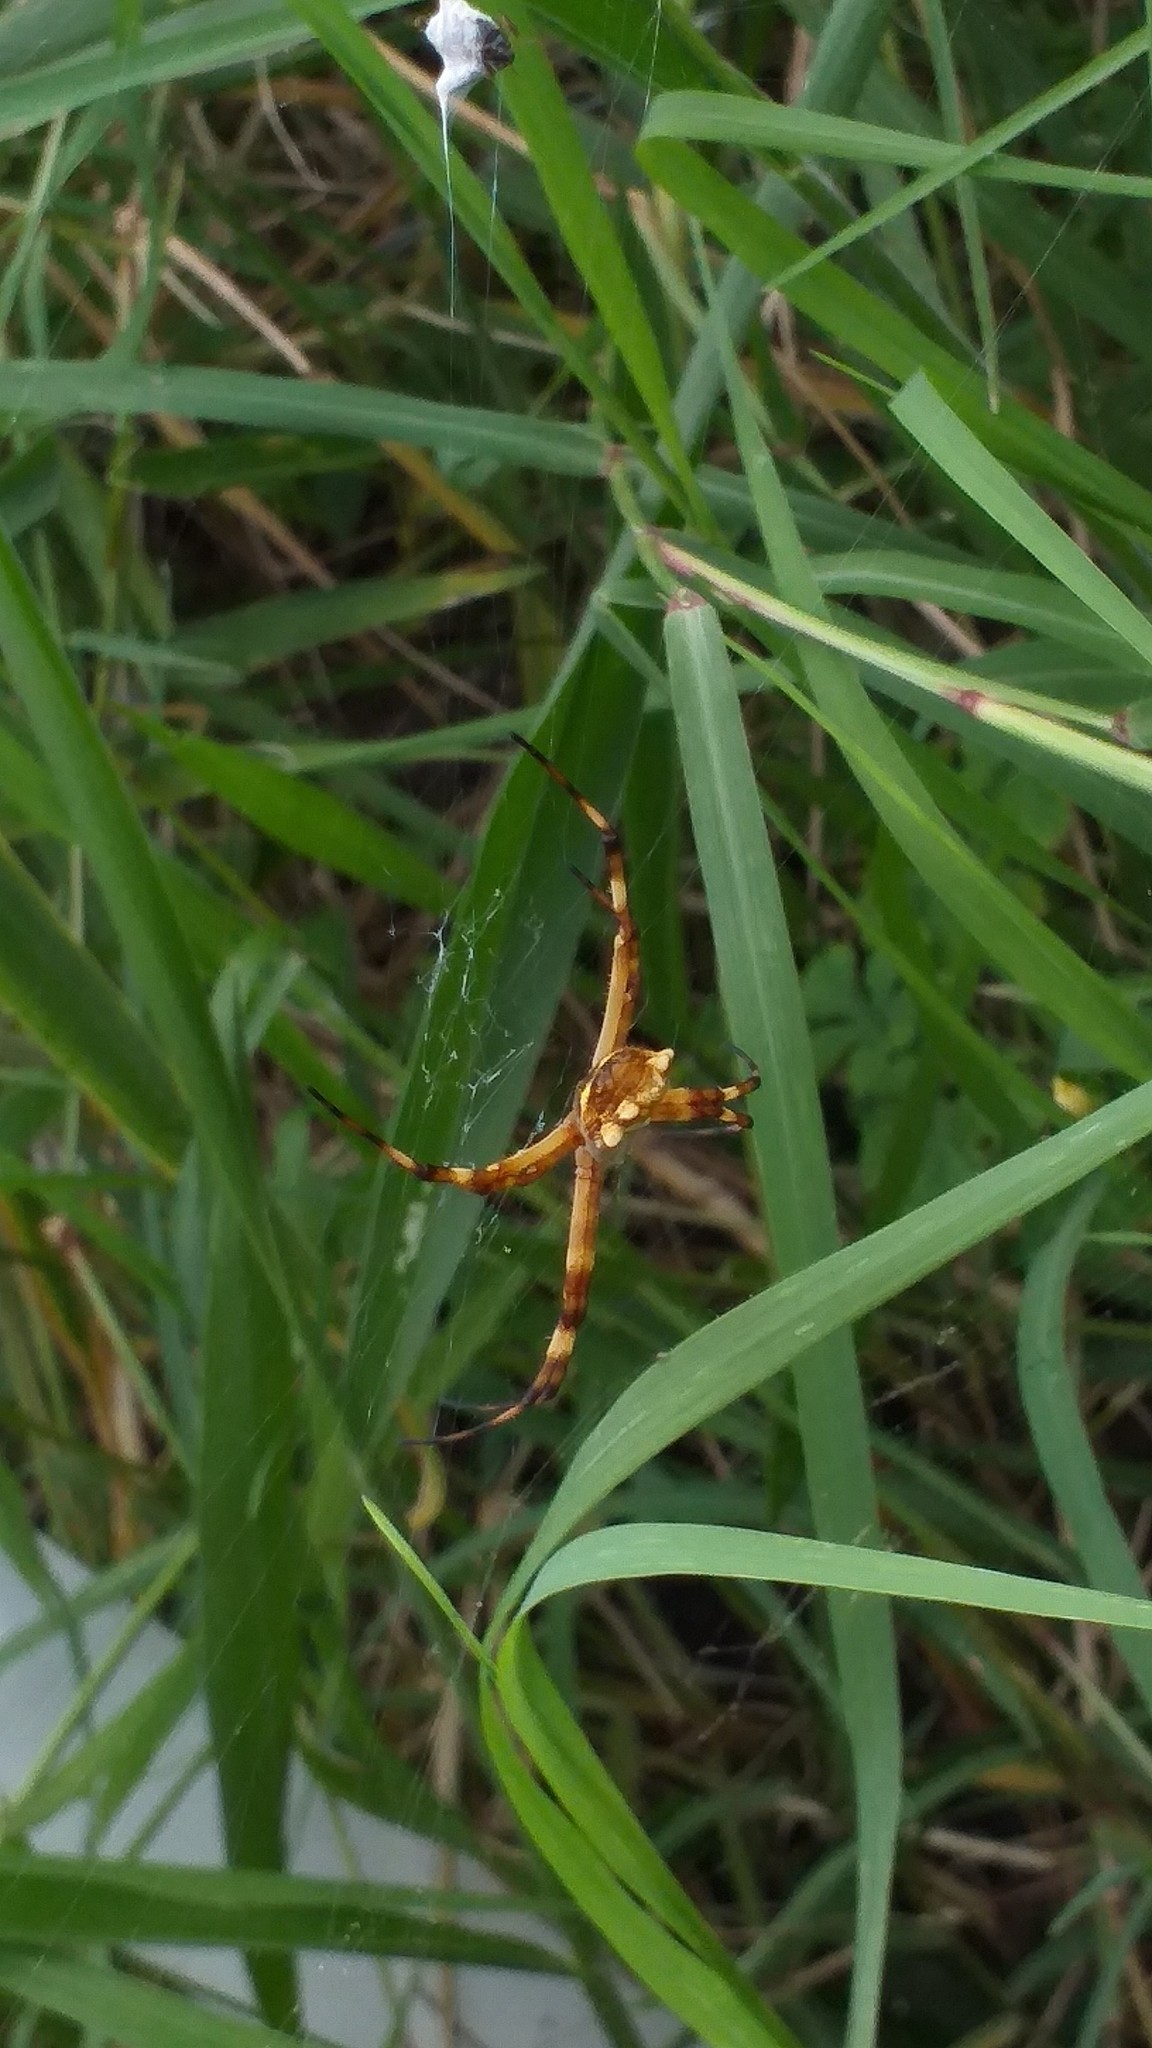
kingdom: Animalia
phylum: Arthropoda
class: Arachnida
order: Araneae
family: Araneidae
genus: Argiope
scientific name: Argiope argentata
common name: Orb weavers
